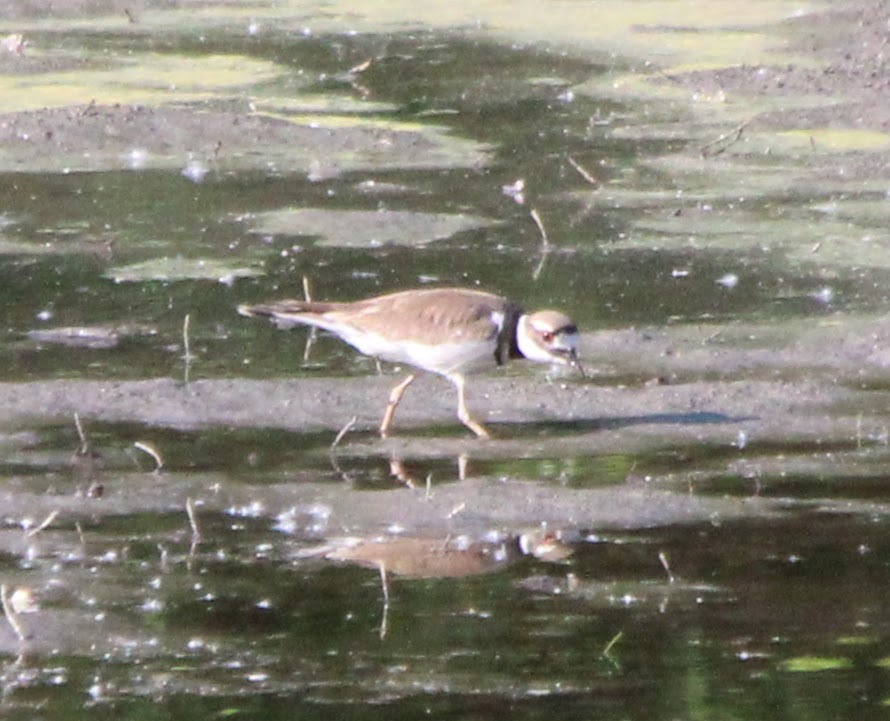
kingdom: Animalia
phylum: Chordata
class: Aves
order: Charadriiformes
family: Charadriidae
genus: Charadrius
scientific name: Charadrius vociferus
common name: Killdeer
